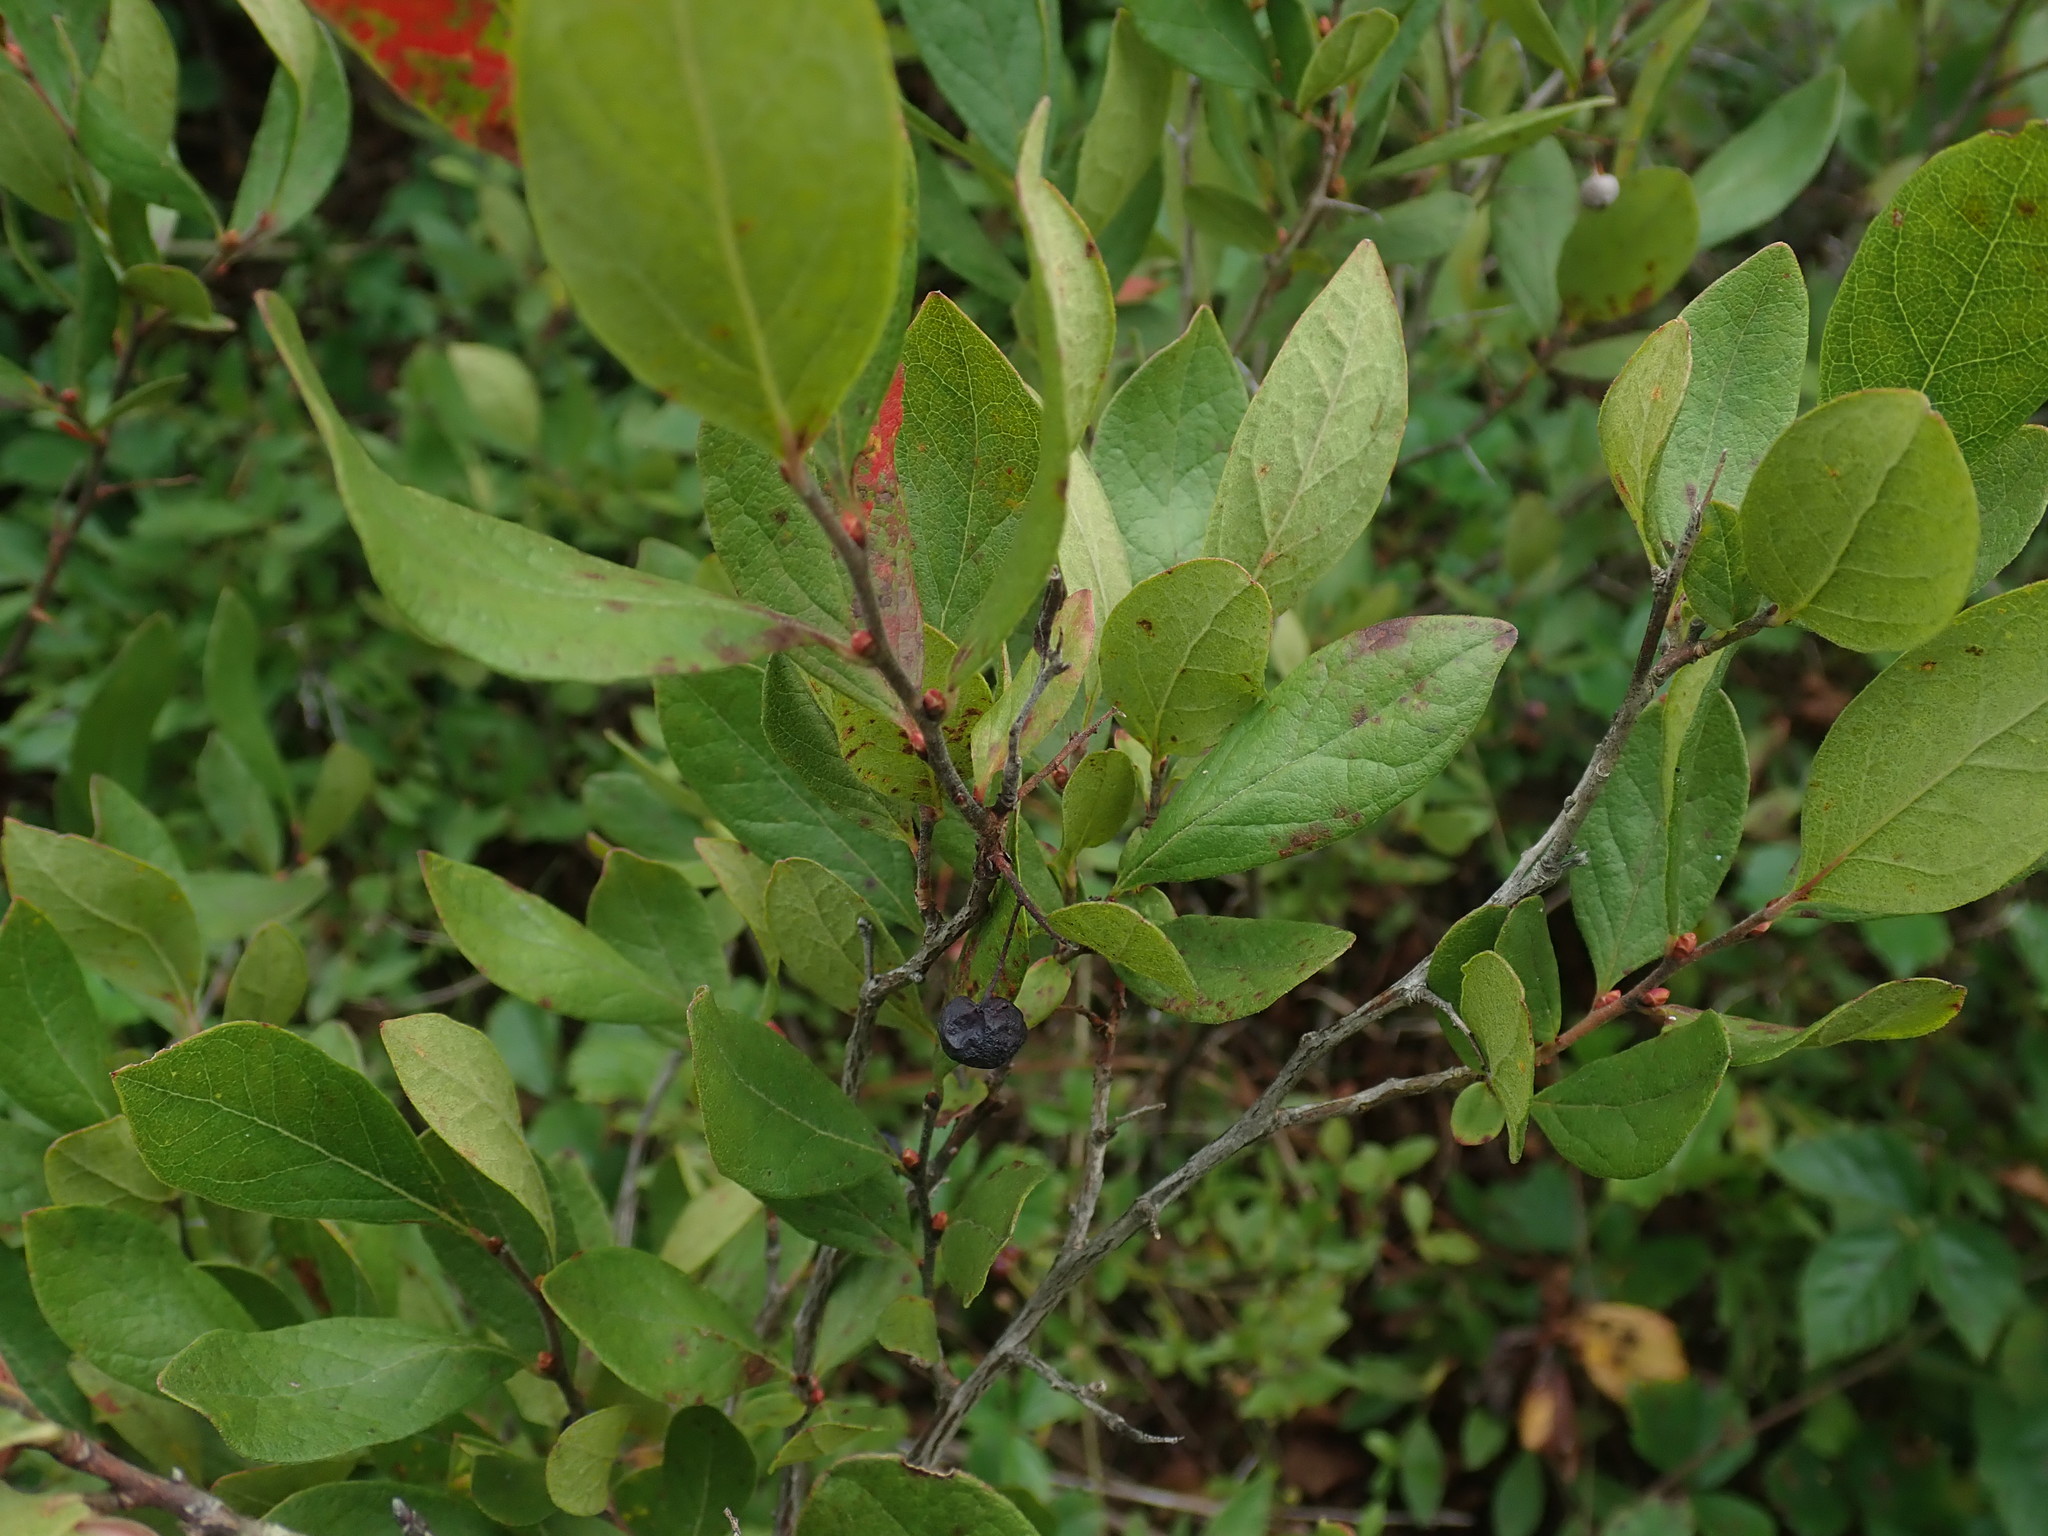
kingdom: Plantae
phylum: Tracheophyta
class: Magnoliopsida
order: Ericales
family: Ericaceae
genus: Gaylussacia
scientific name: Gaylussacia baccata
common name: Black huckleberry
